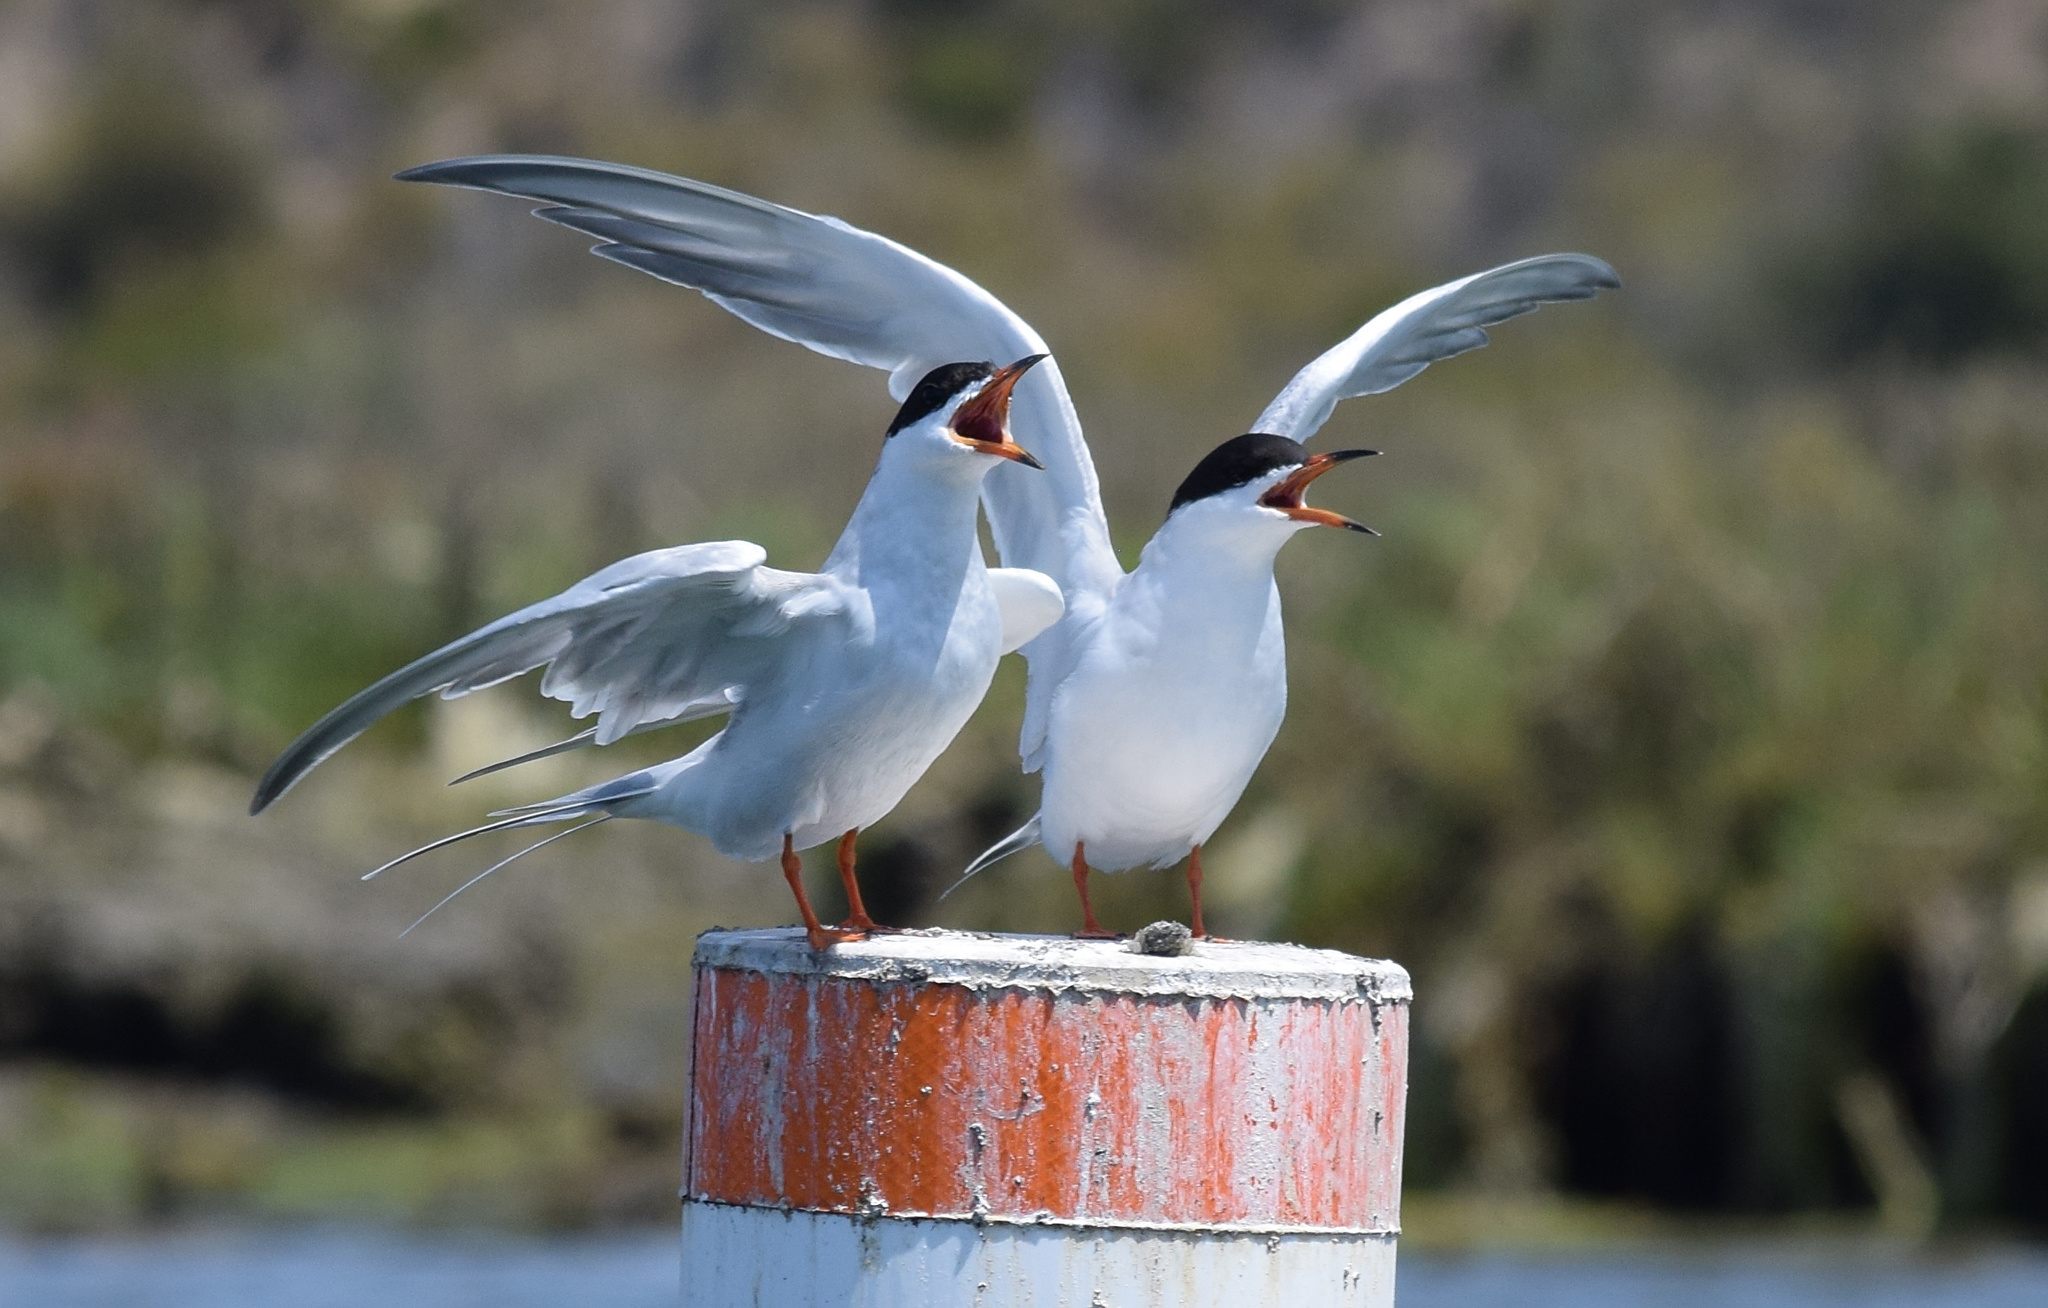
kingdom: Animalia
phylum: Chordata
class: Aves
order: Charadriiformes
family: Laridae
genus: Sterna
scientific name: Sterna forsteri
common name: Forster's tern
